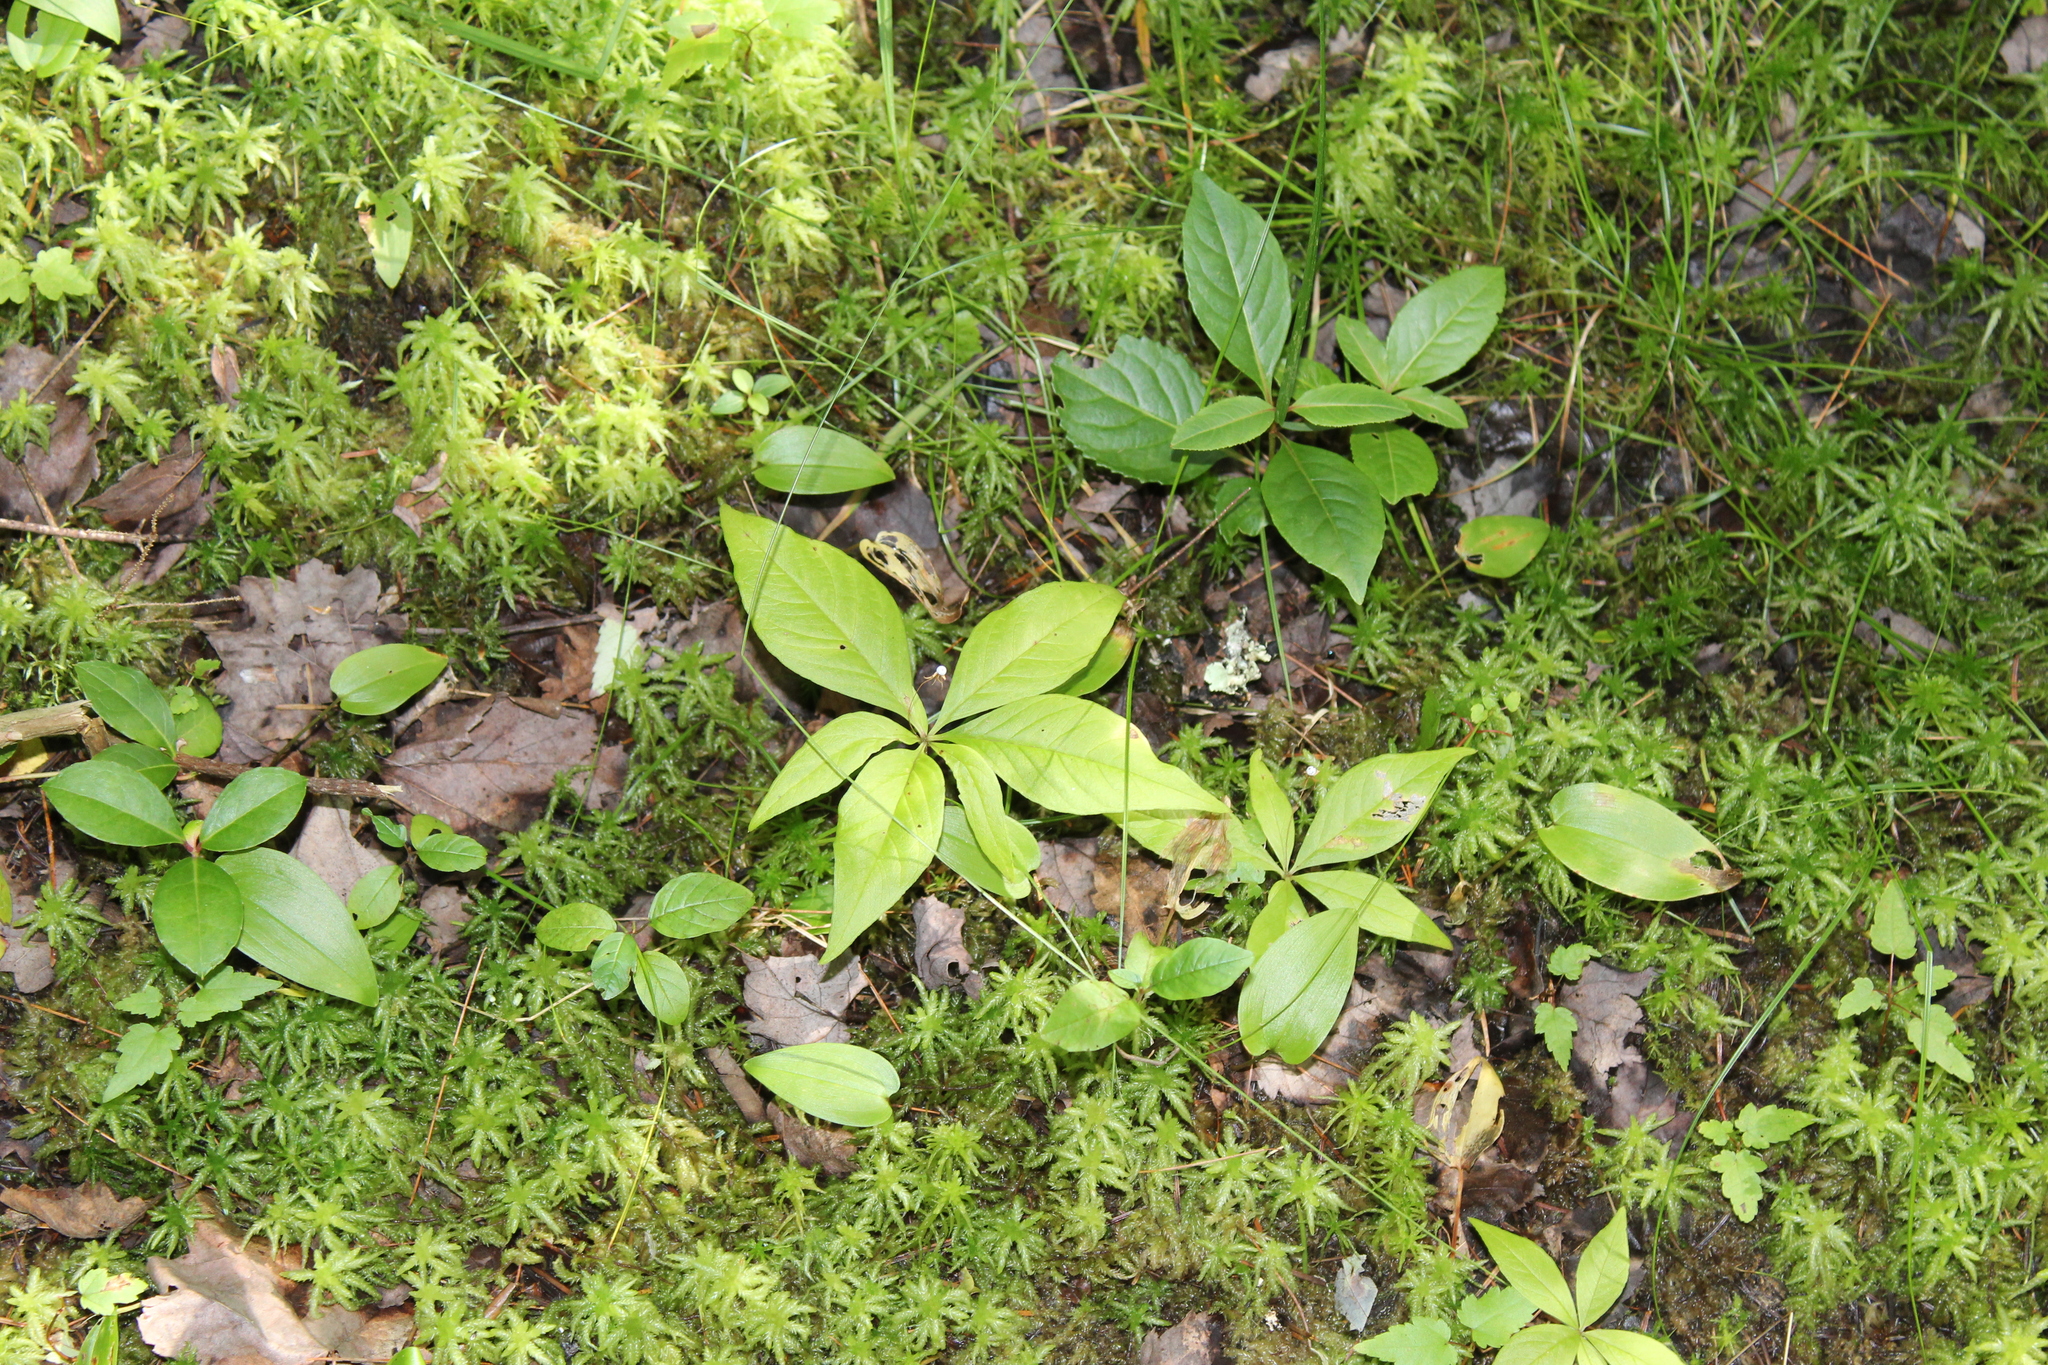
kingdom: Plantae
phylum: Tracheophyta
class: Magnoliopsida
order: Ericales
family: Primulaceae
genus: Lysimachia
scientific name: Lysimachia borealis
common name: American starflower
